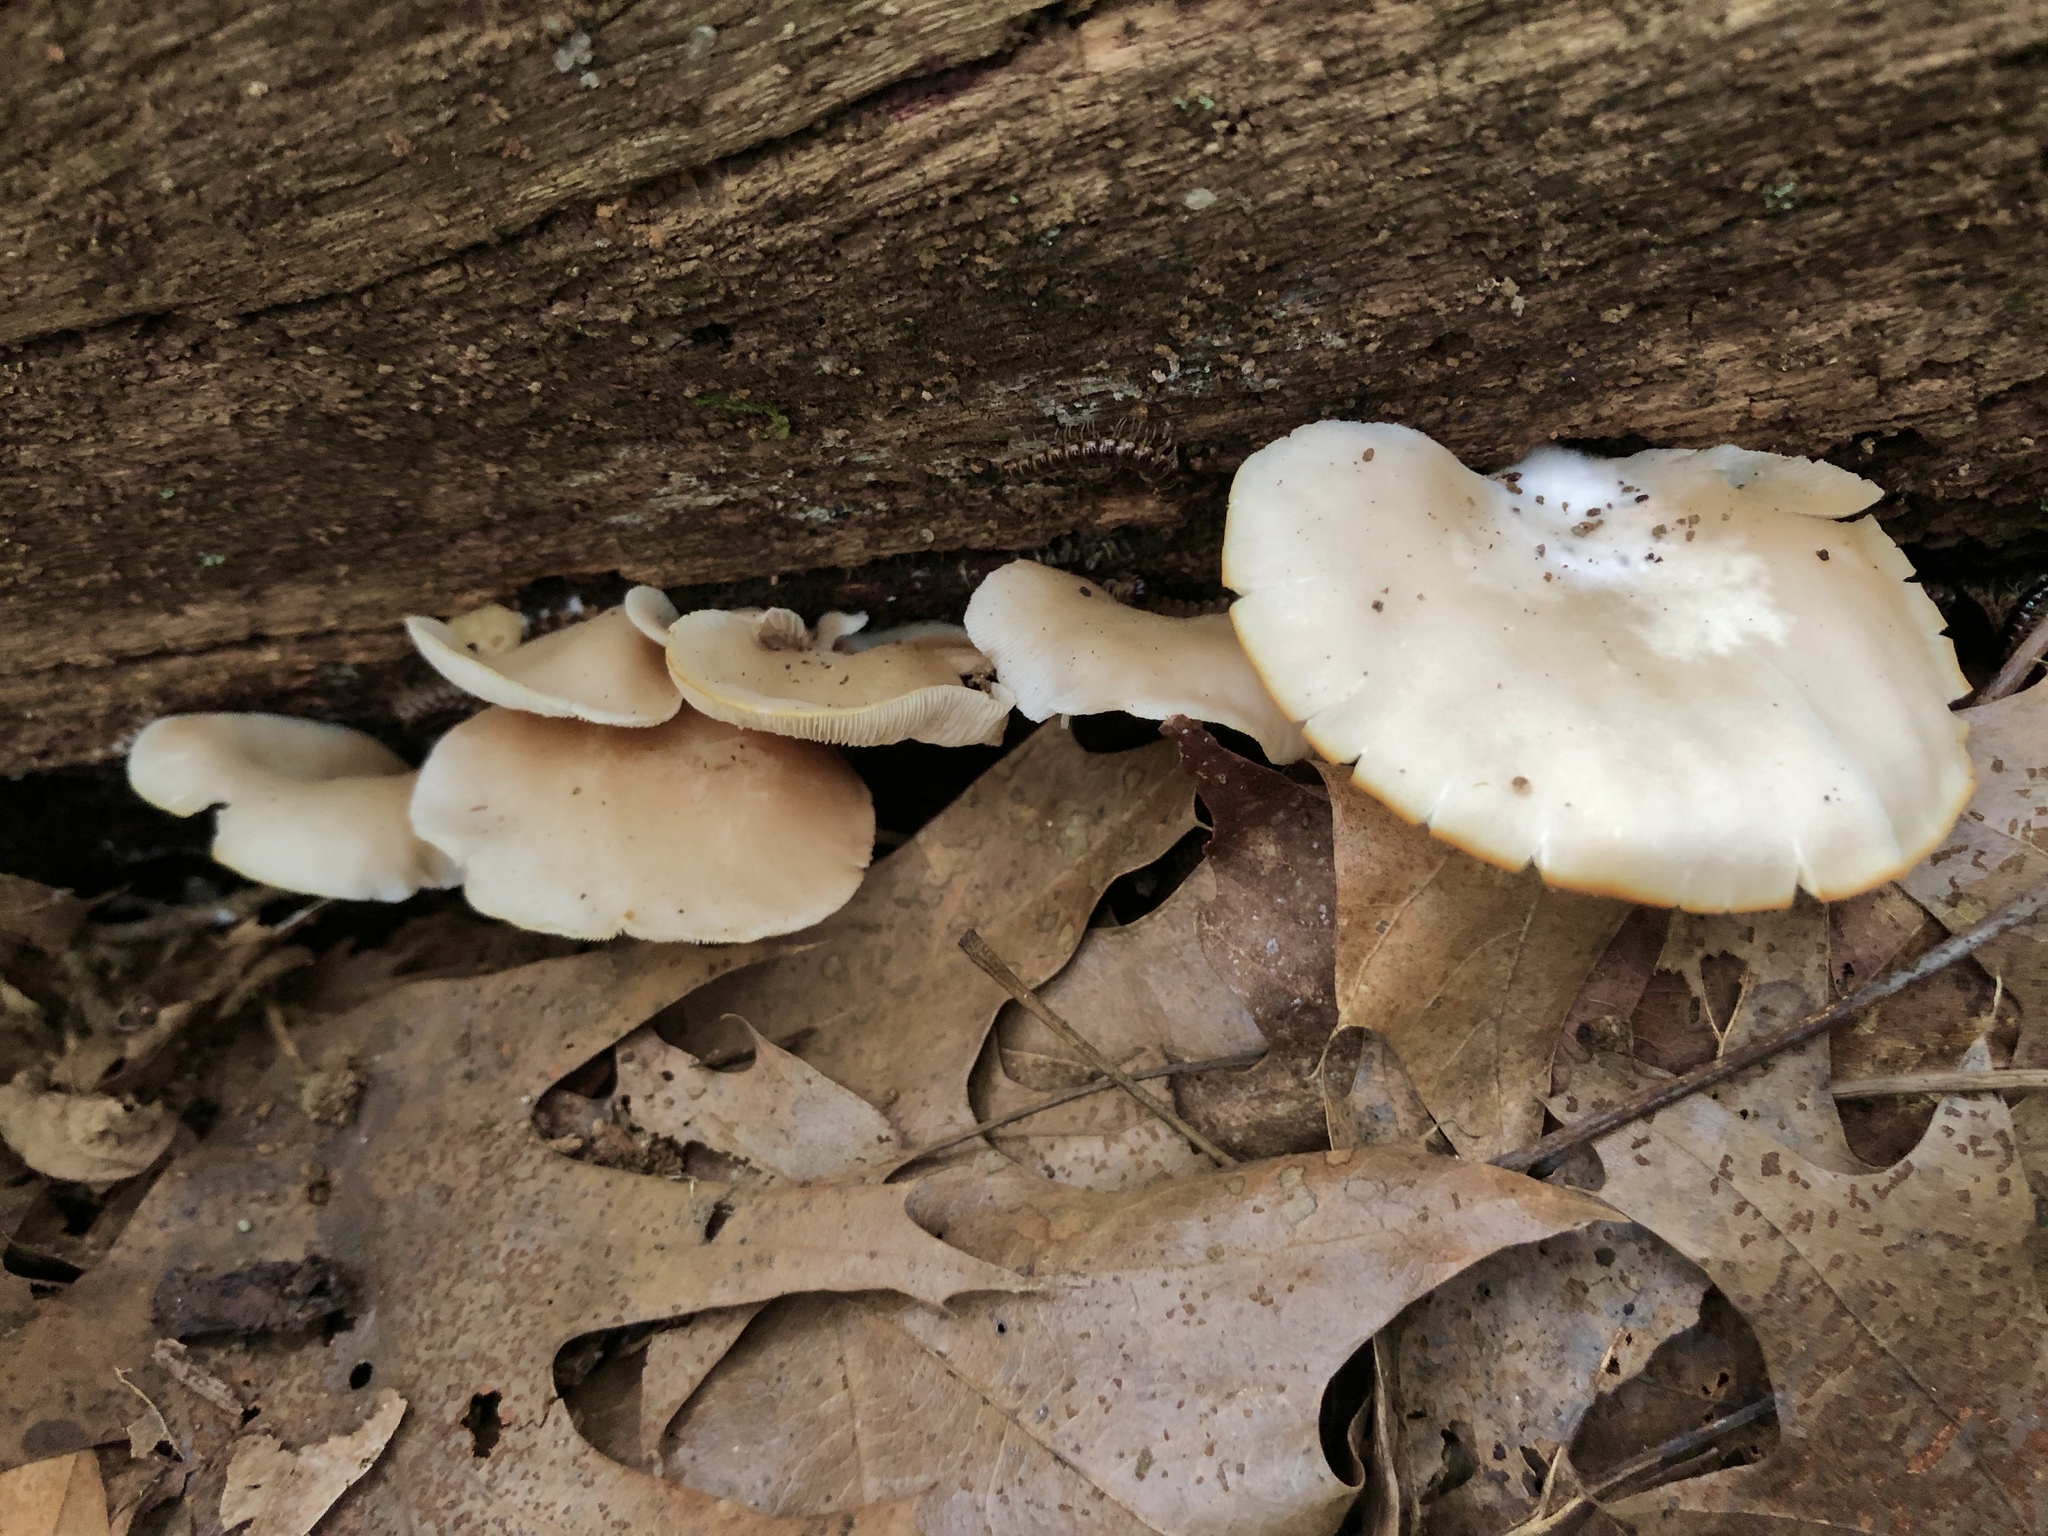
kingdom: Fungi
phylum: Basidiomycota
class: Agaricomycetes
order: Agaricales
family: Crepidotaceae
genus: Crepidotus
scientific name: Crepidotus applanatus
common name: Flat crep
